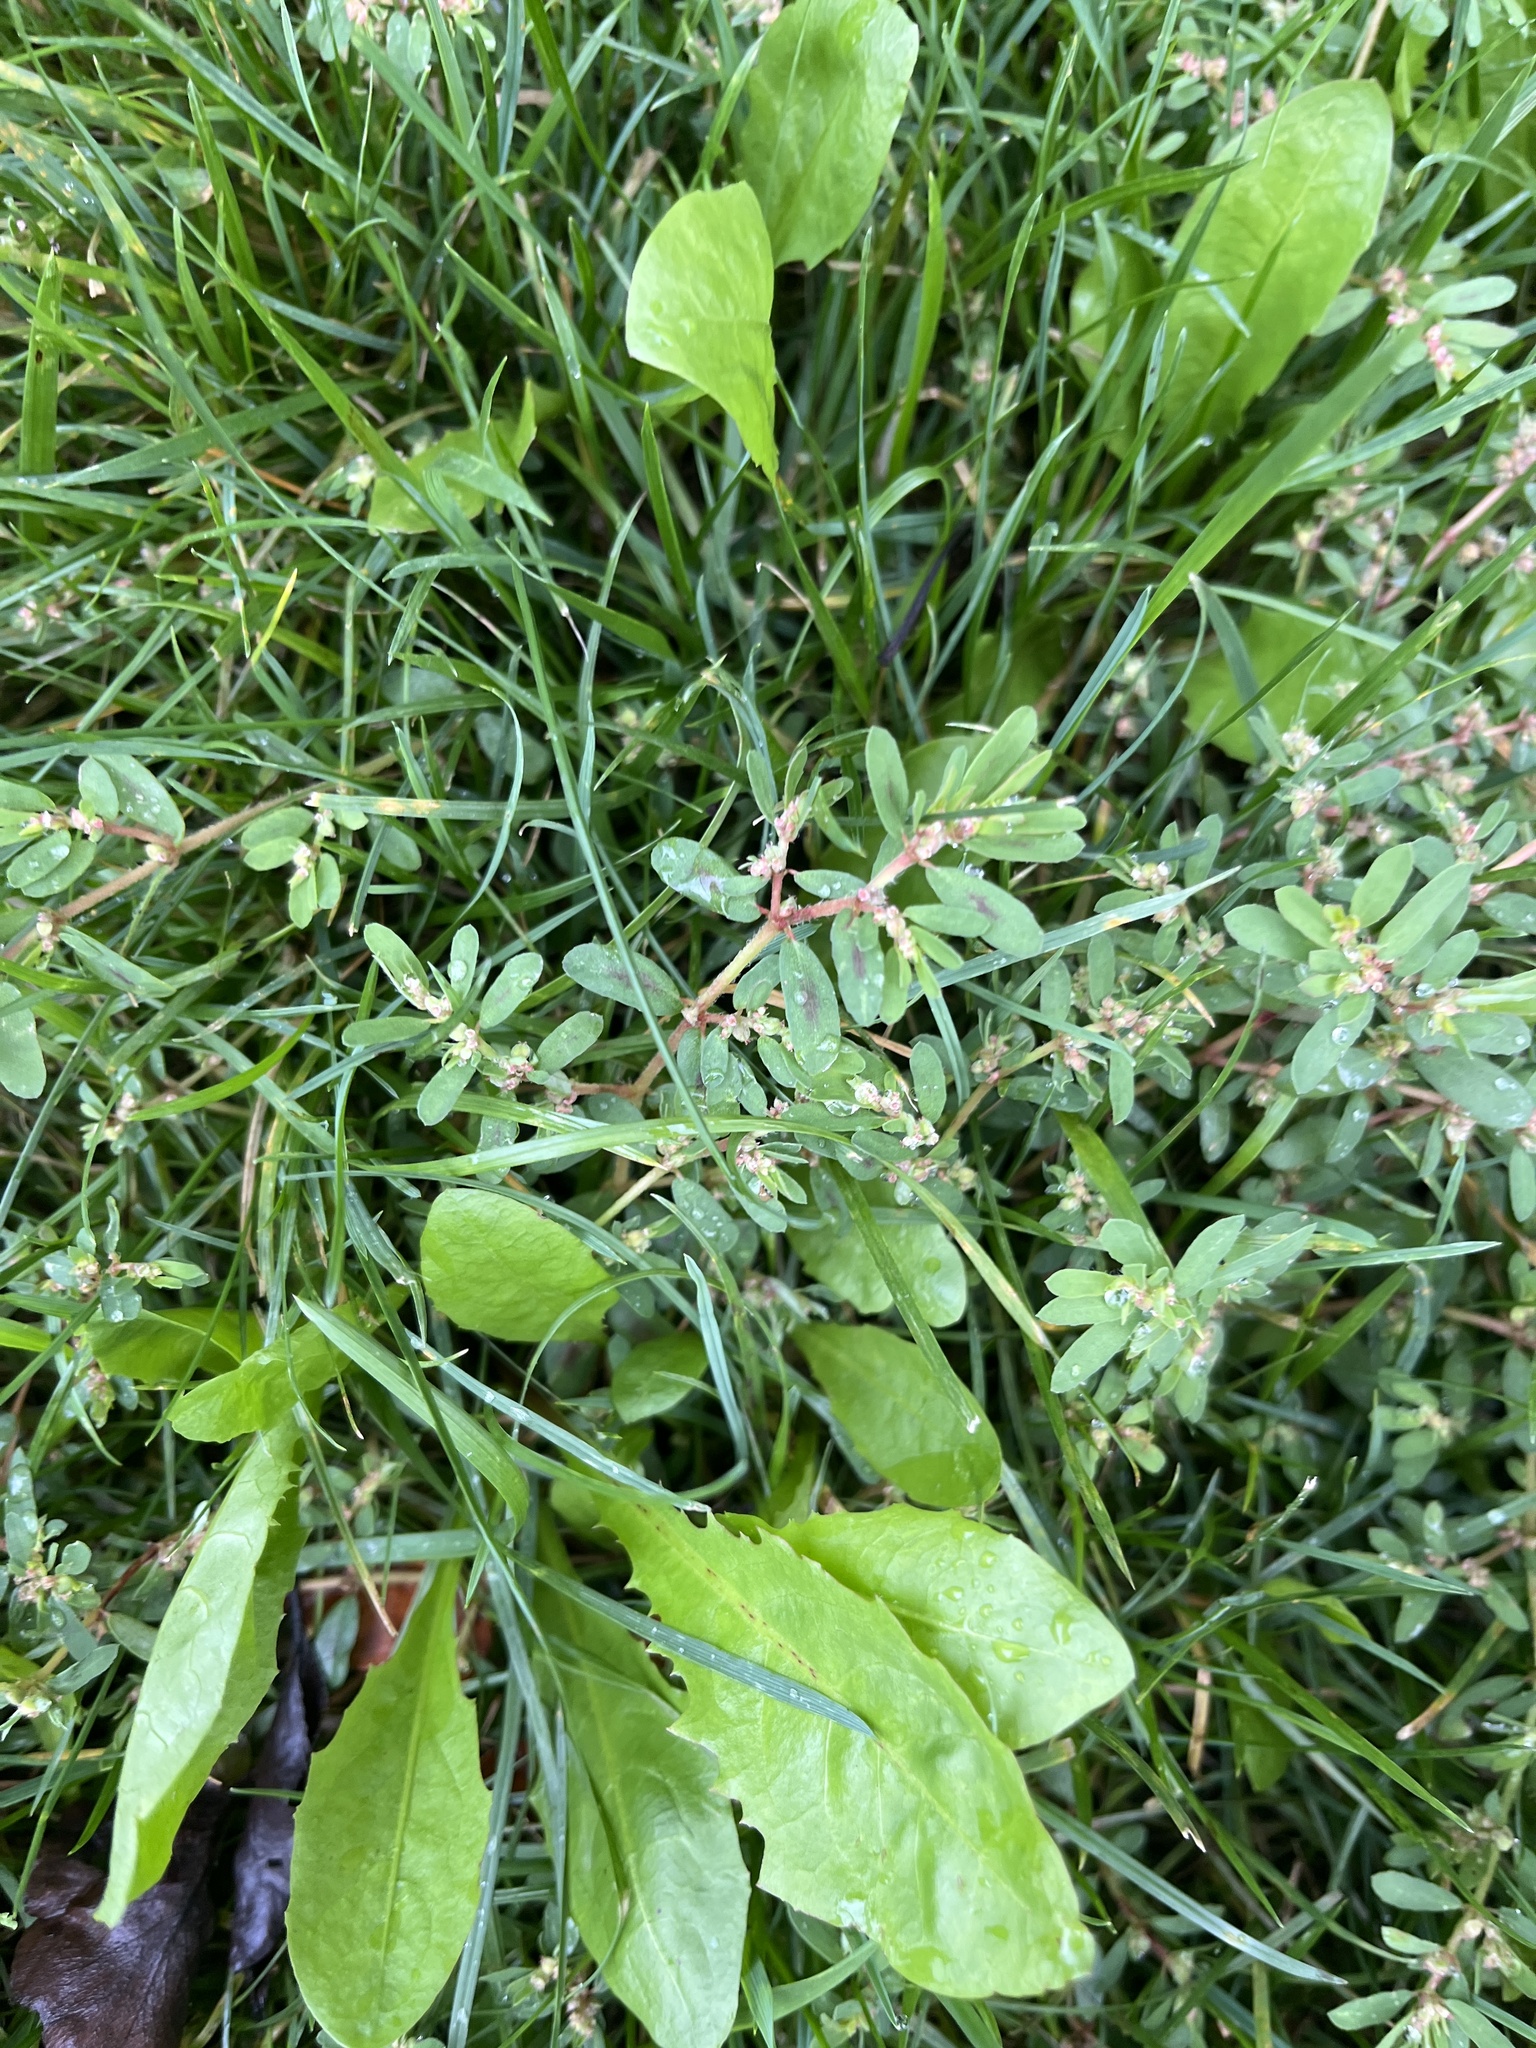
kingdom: Plantae
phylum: Tracheophyta
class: Magnoliopsida
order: Malpighiales
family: Euphorbiaceae
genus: Euphorbia
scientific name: Euphorbia maculata
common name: Spotted spurge
